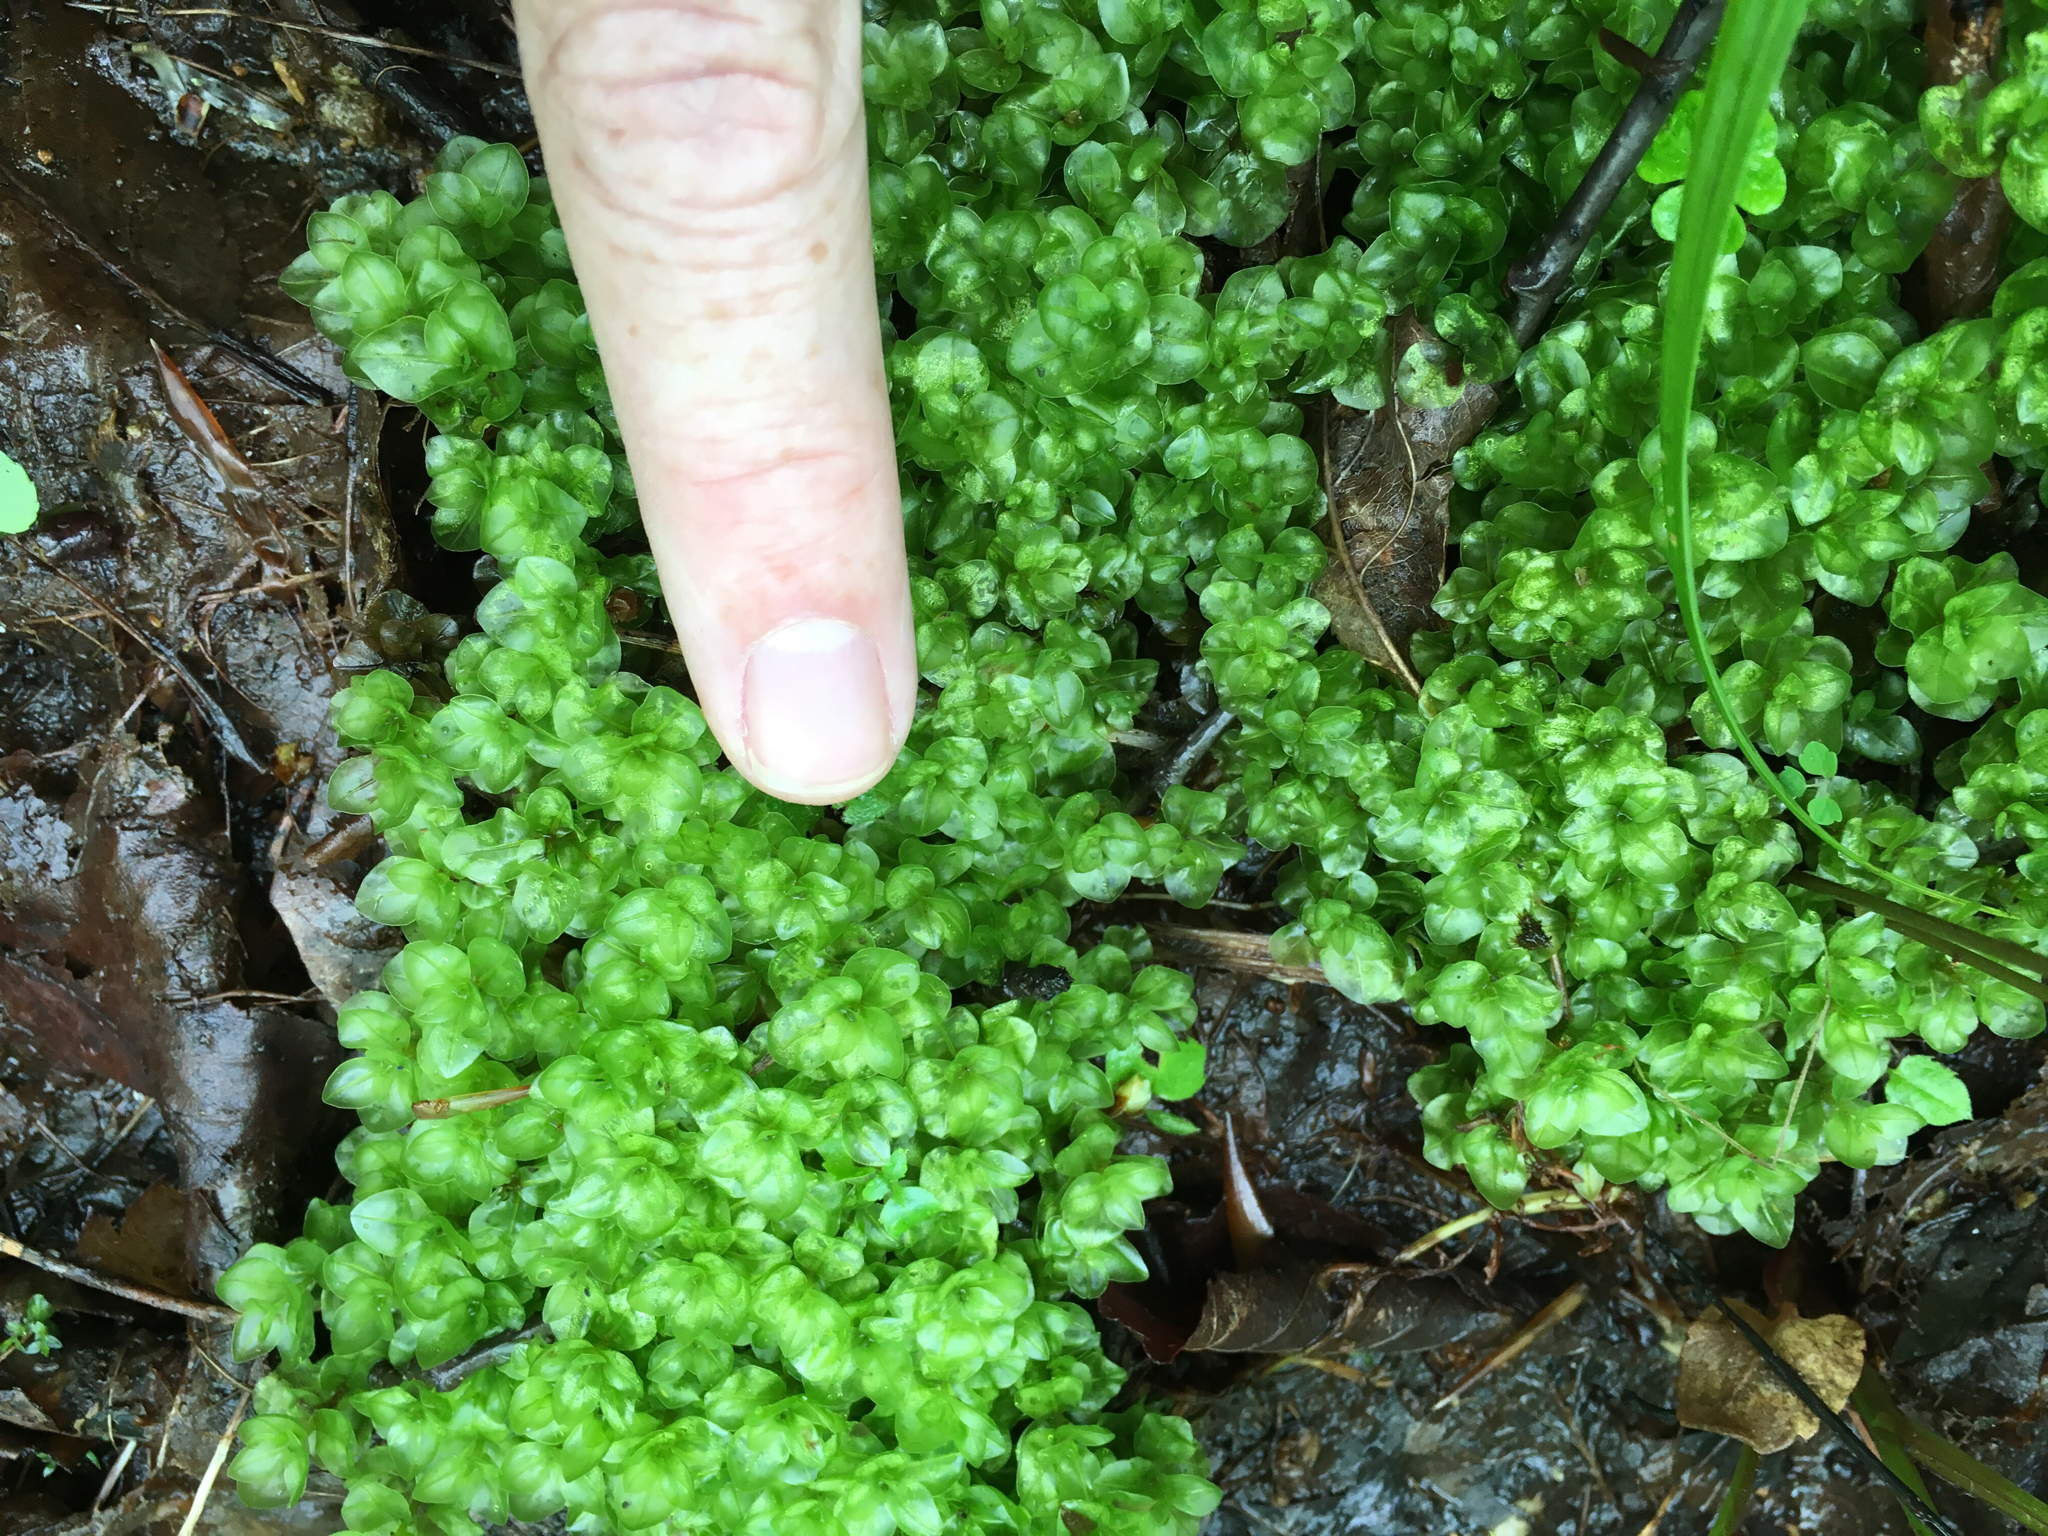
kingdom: Plantae
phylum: Bryophyta
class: Bryopsida
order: Bryales
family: Mniaceae
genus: Rhizomnium
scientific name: Rhizomnium appalachianum
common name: Appalachian leafy moss
